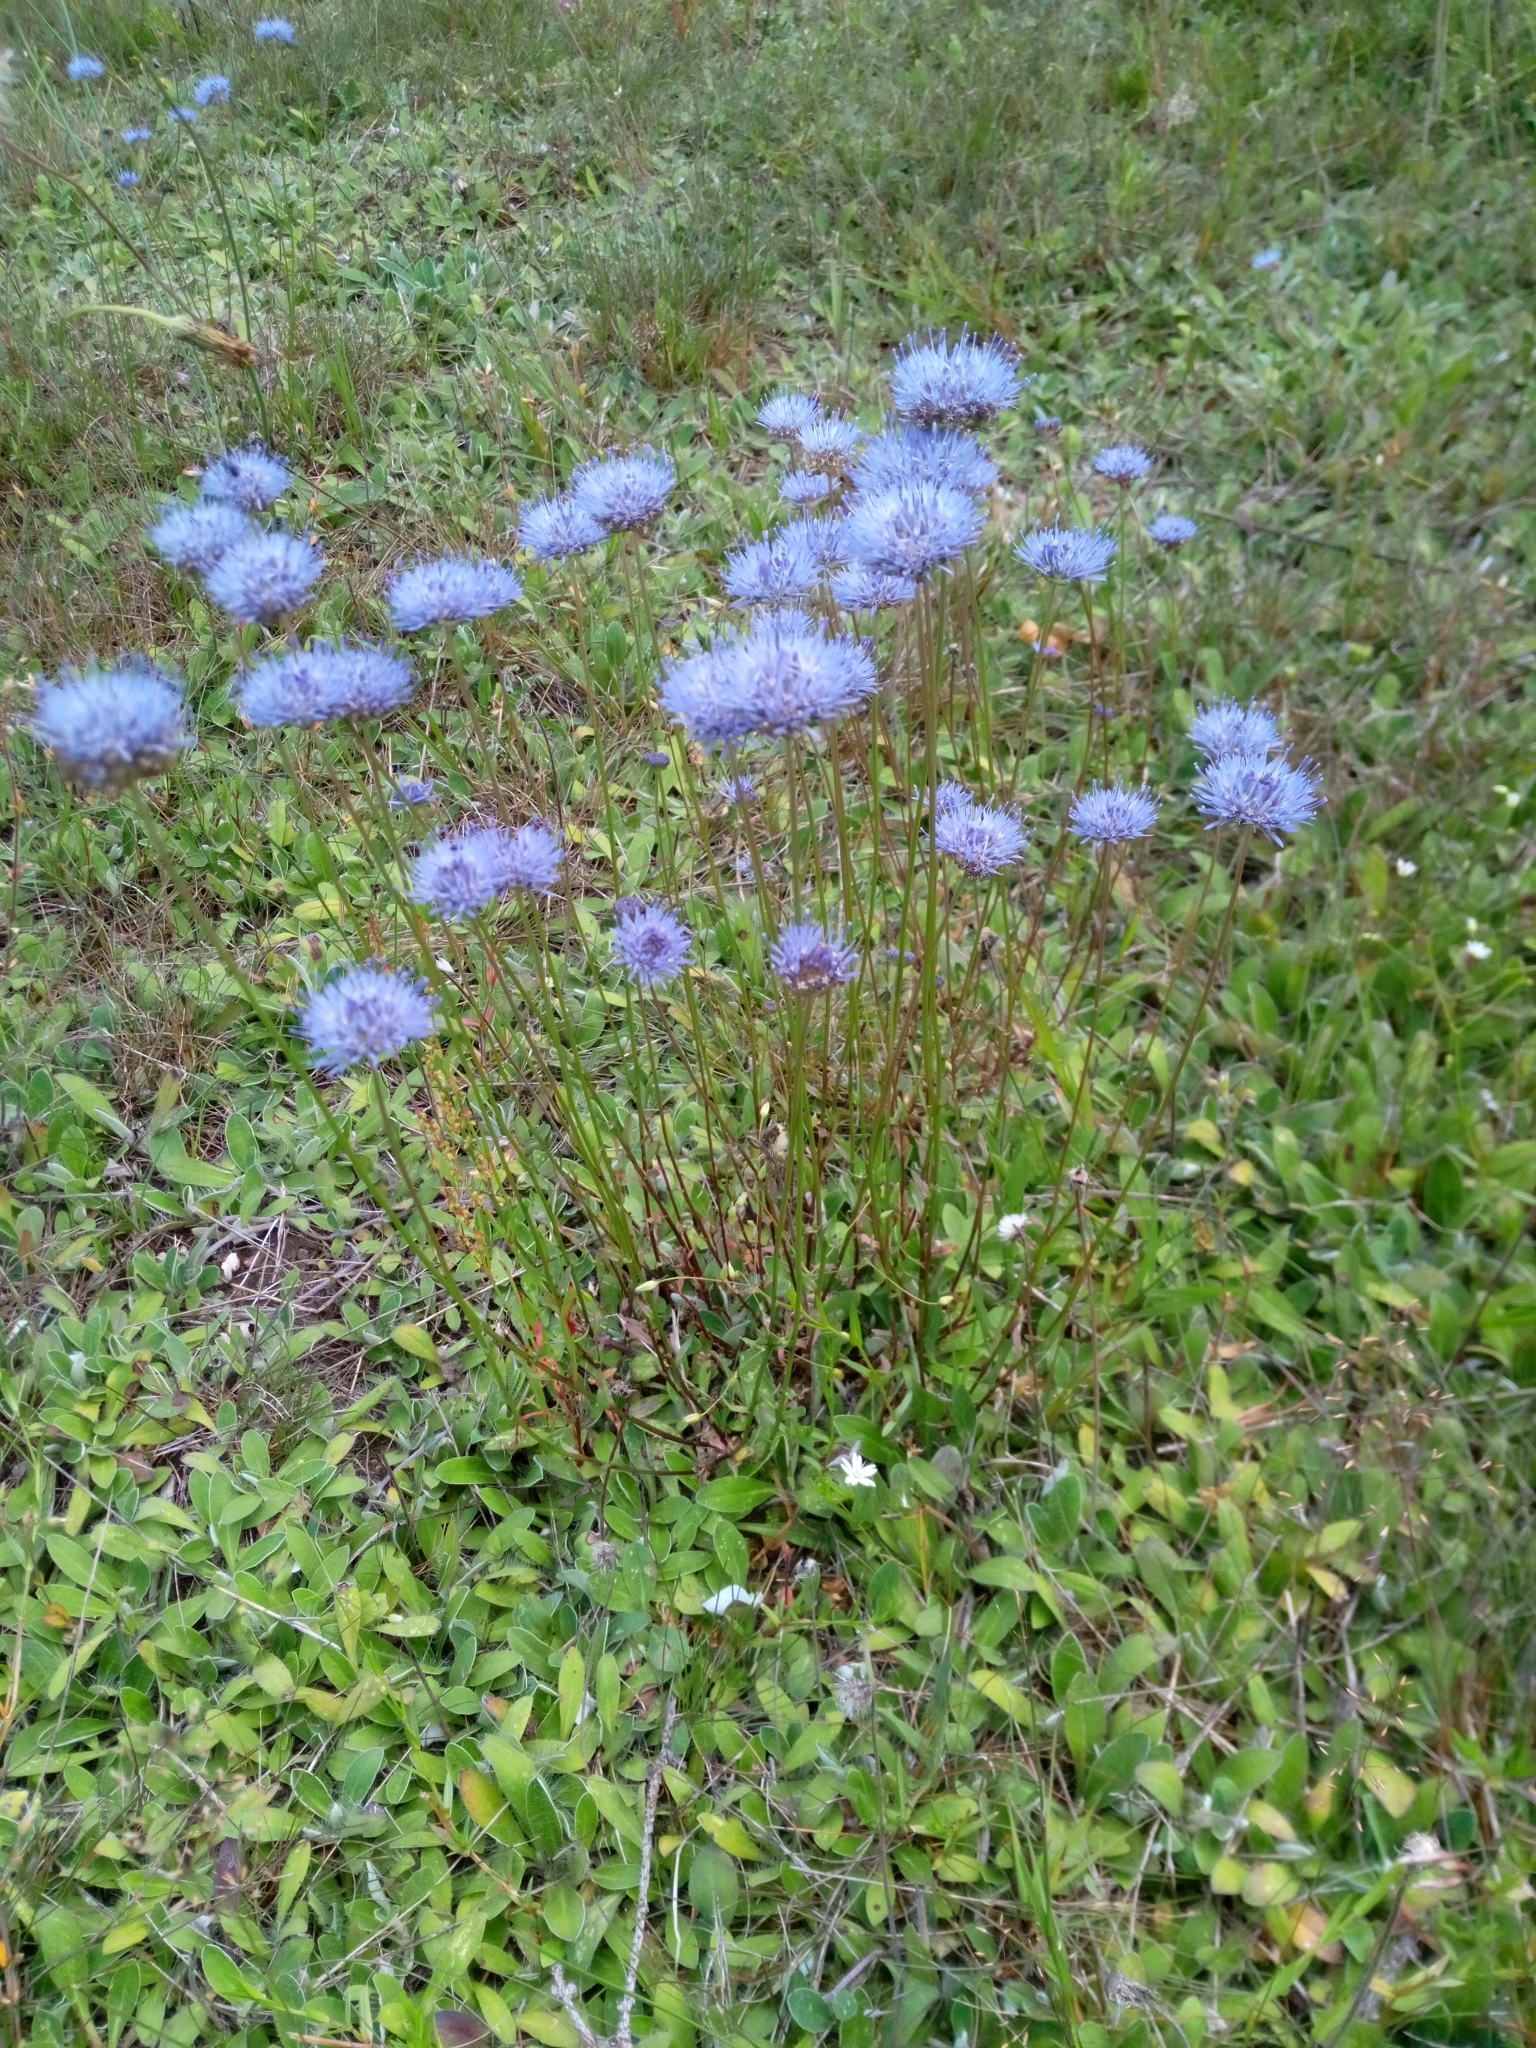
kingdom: Plantae
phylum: Tracheophyta
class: Magnoliopsida
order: Asterales
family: Campanulaceae
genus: Jasione
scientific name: Jasione montana
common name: Sheep's-bit
